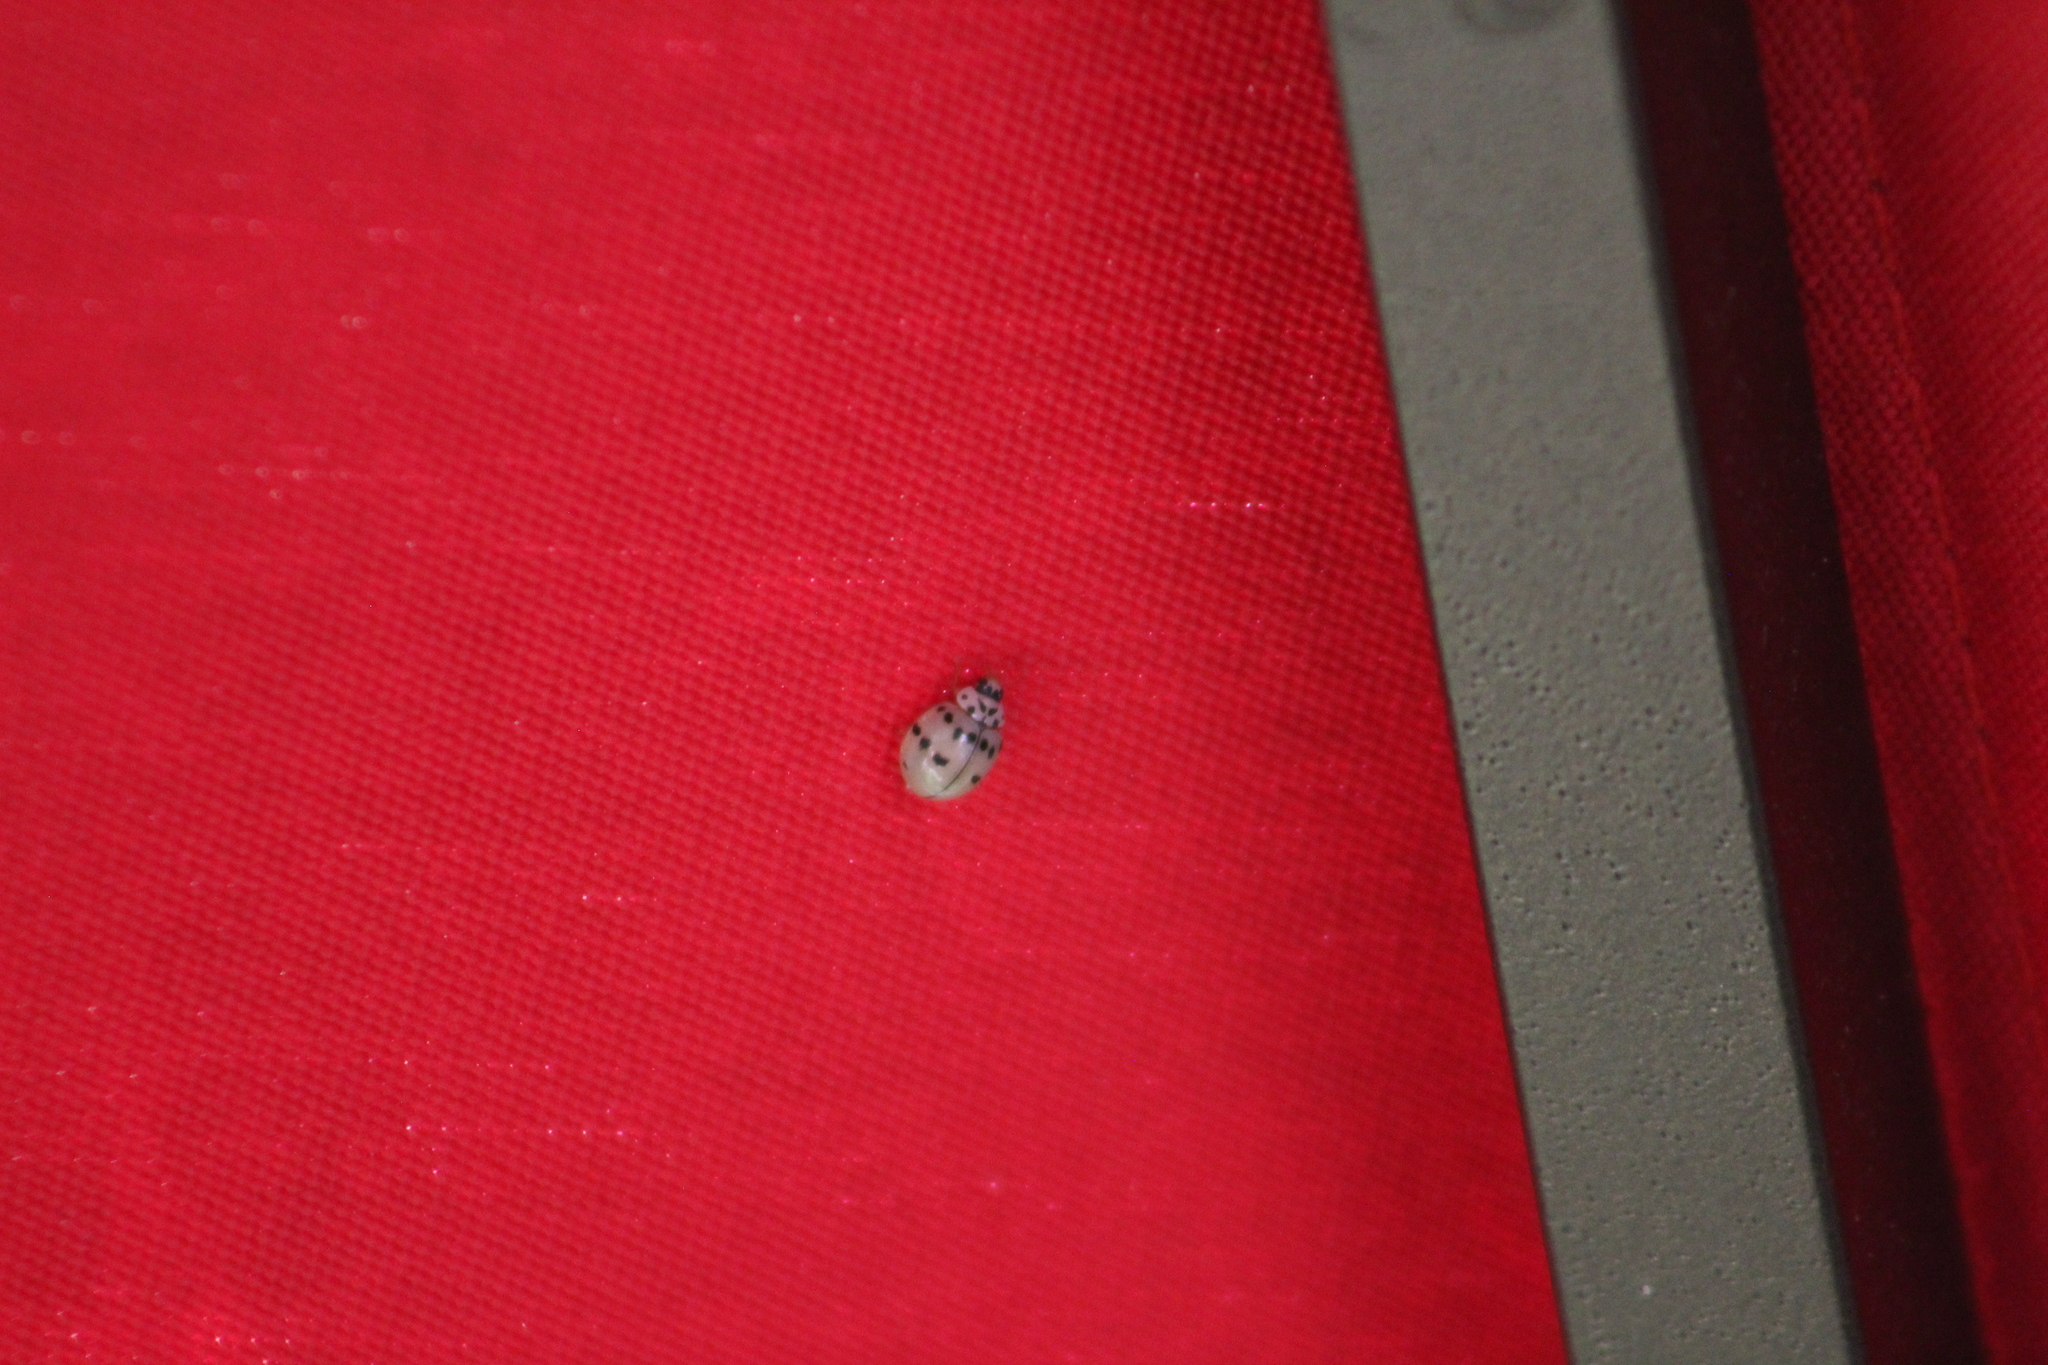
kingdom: Animalia
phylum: Arthropoda
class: Insecta
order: Coleoptera
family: Coccinellidae
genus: Olla
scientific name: Olla v-nigrum
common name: Ashy gray lady beetle
